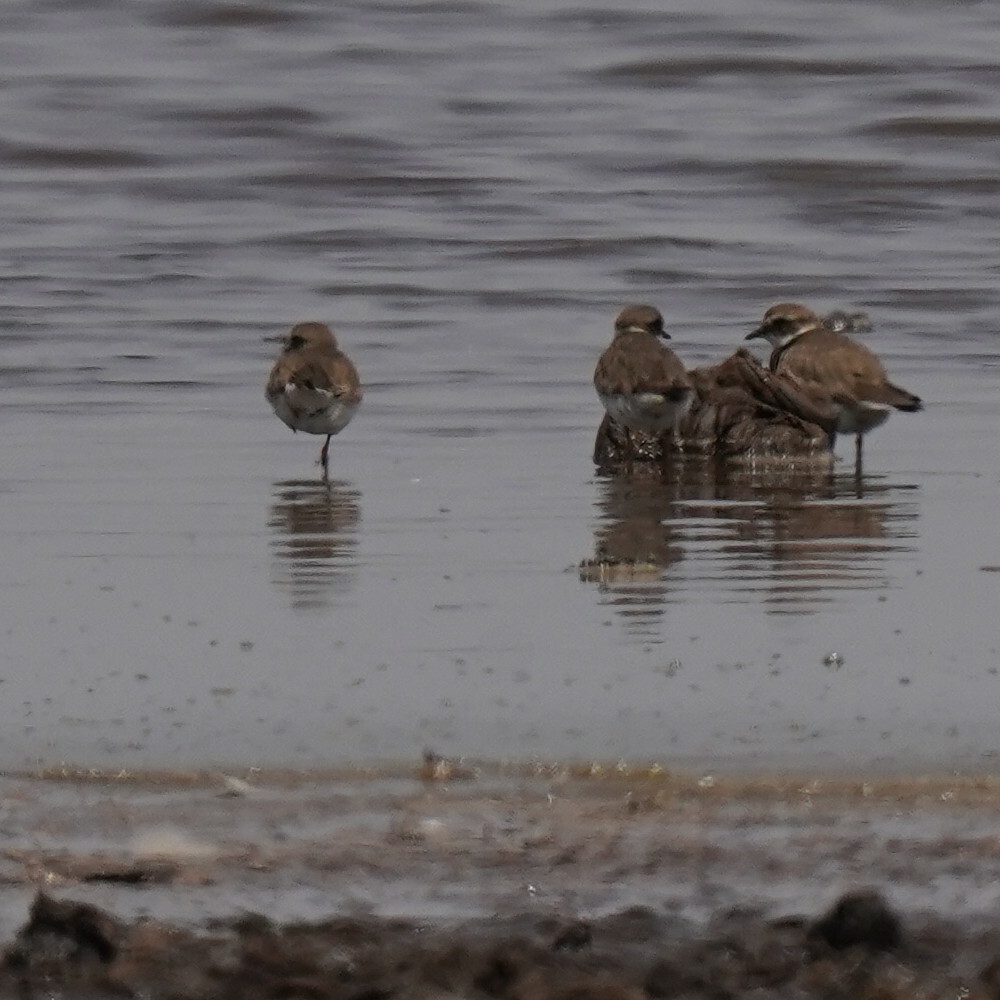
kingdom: Animalia
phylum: Chordata
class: Aves
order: Charadriiformes
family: Charadriidae
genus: Charadrius
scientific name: Charadrius hiaticula
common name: Common ringed plover
